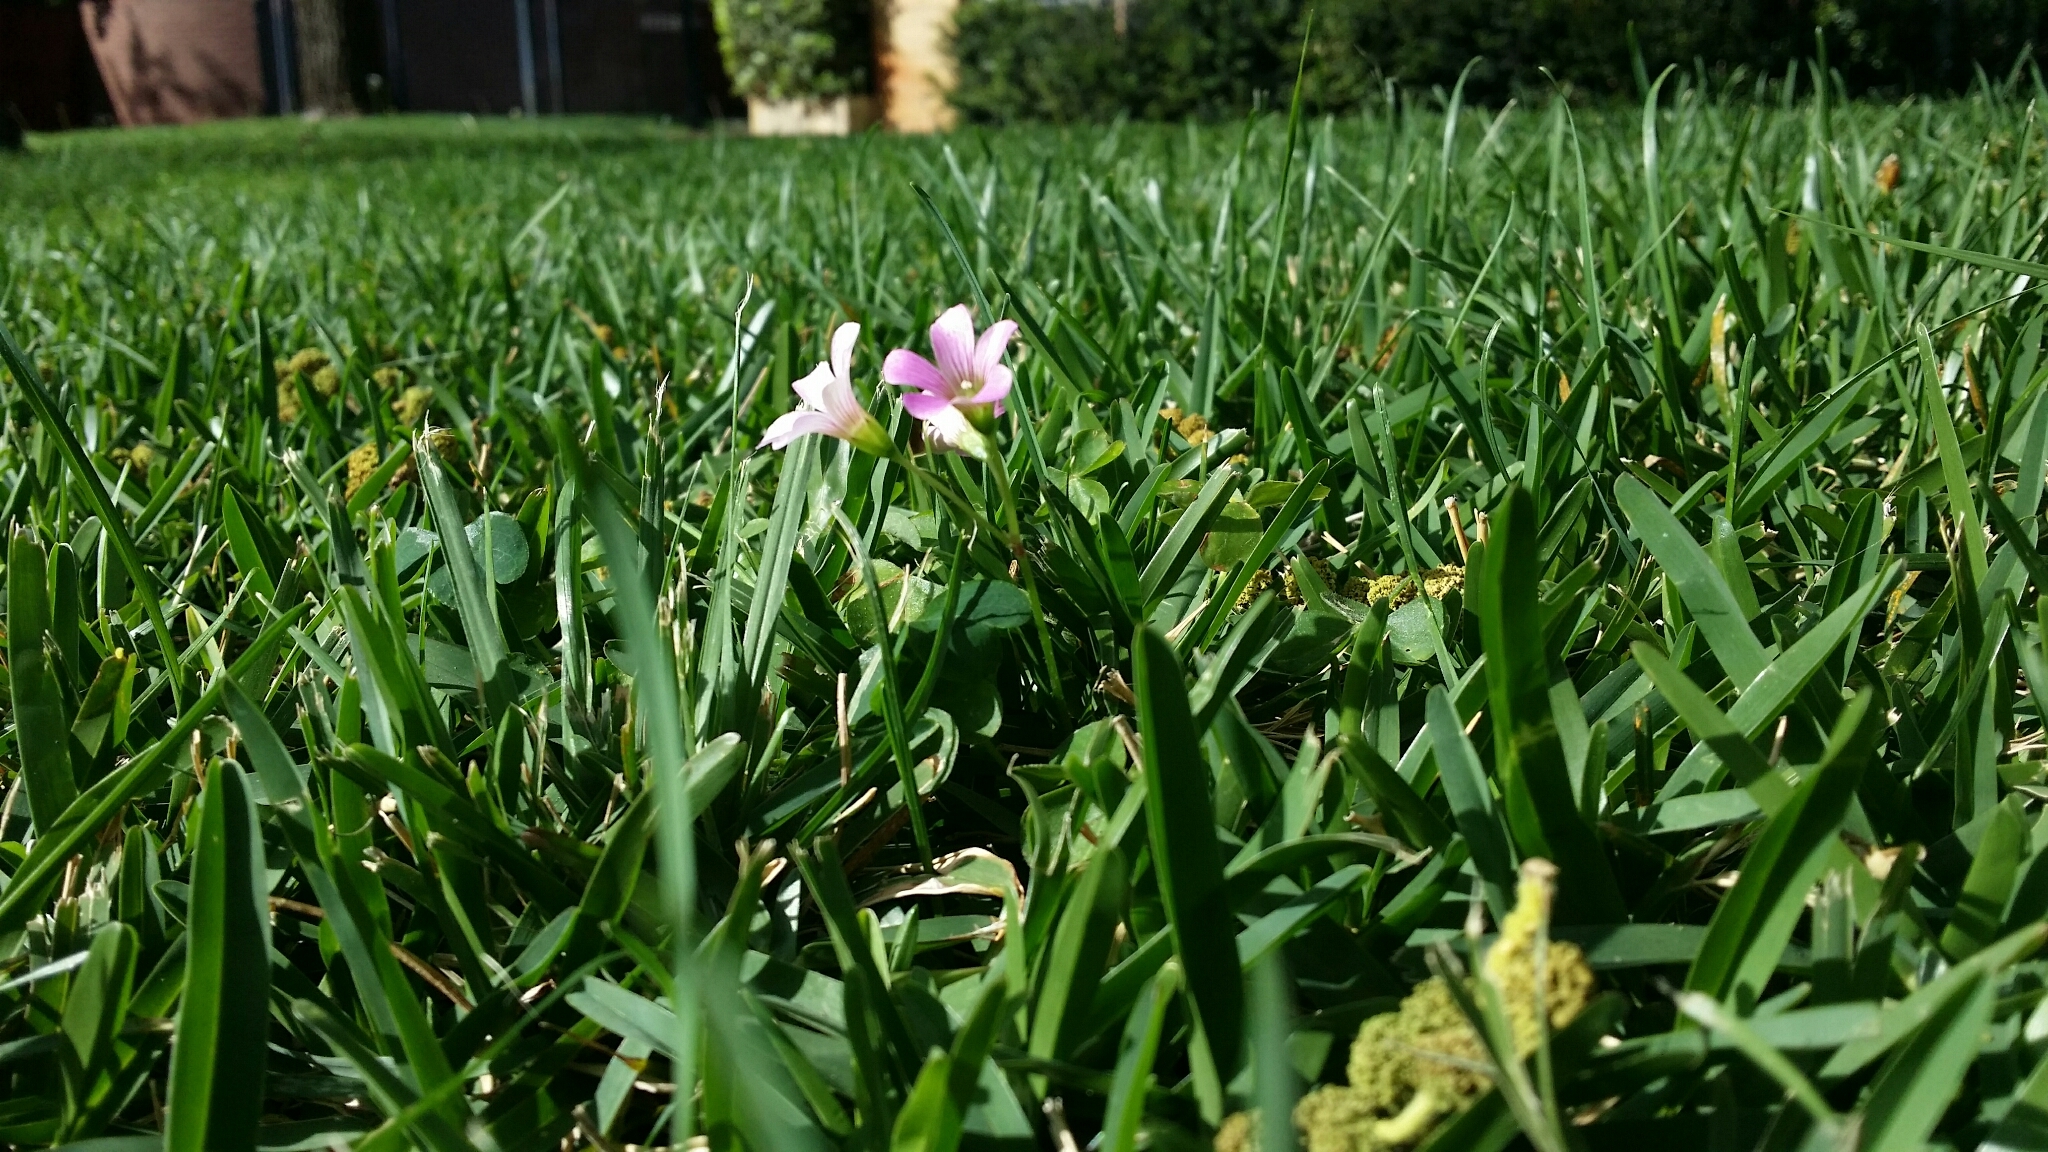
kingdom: Plantae
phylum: Tracheophyta
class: Magnoliopsida
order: Oxalidales
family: Oxalidaceae
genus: Oxalis
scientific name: Oxalis debilis
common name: Large-flowered pink-sorrel
